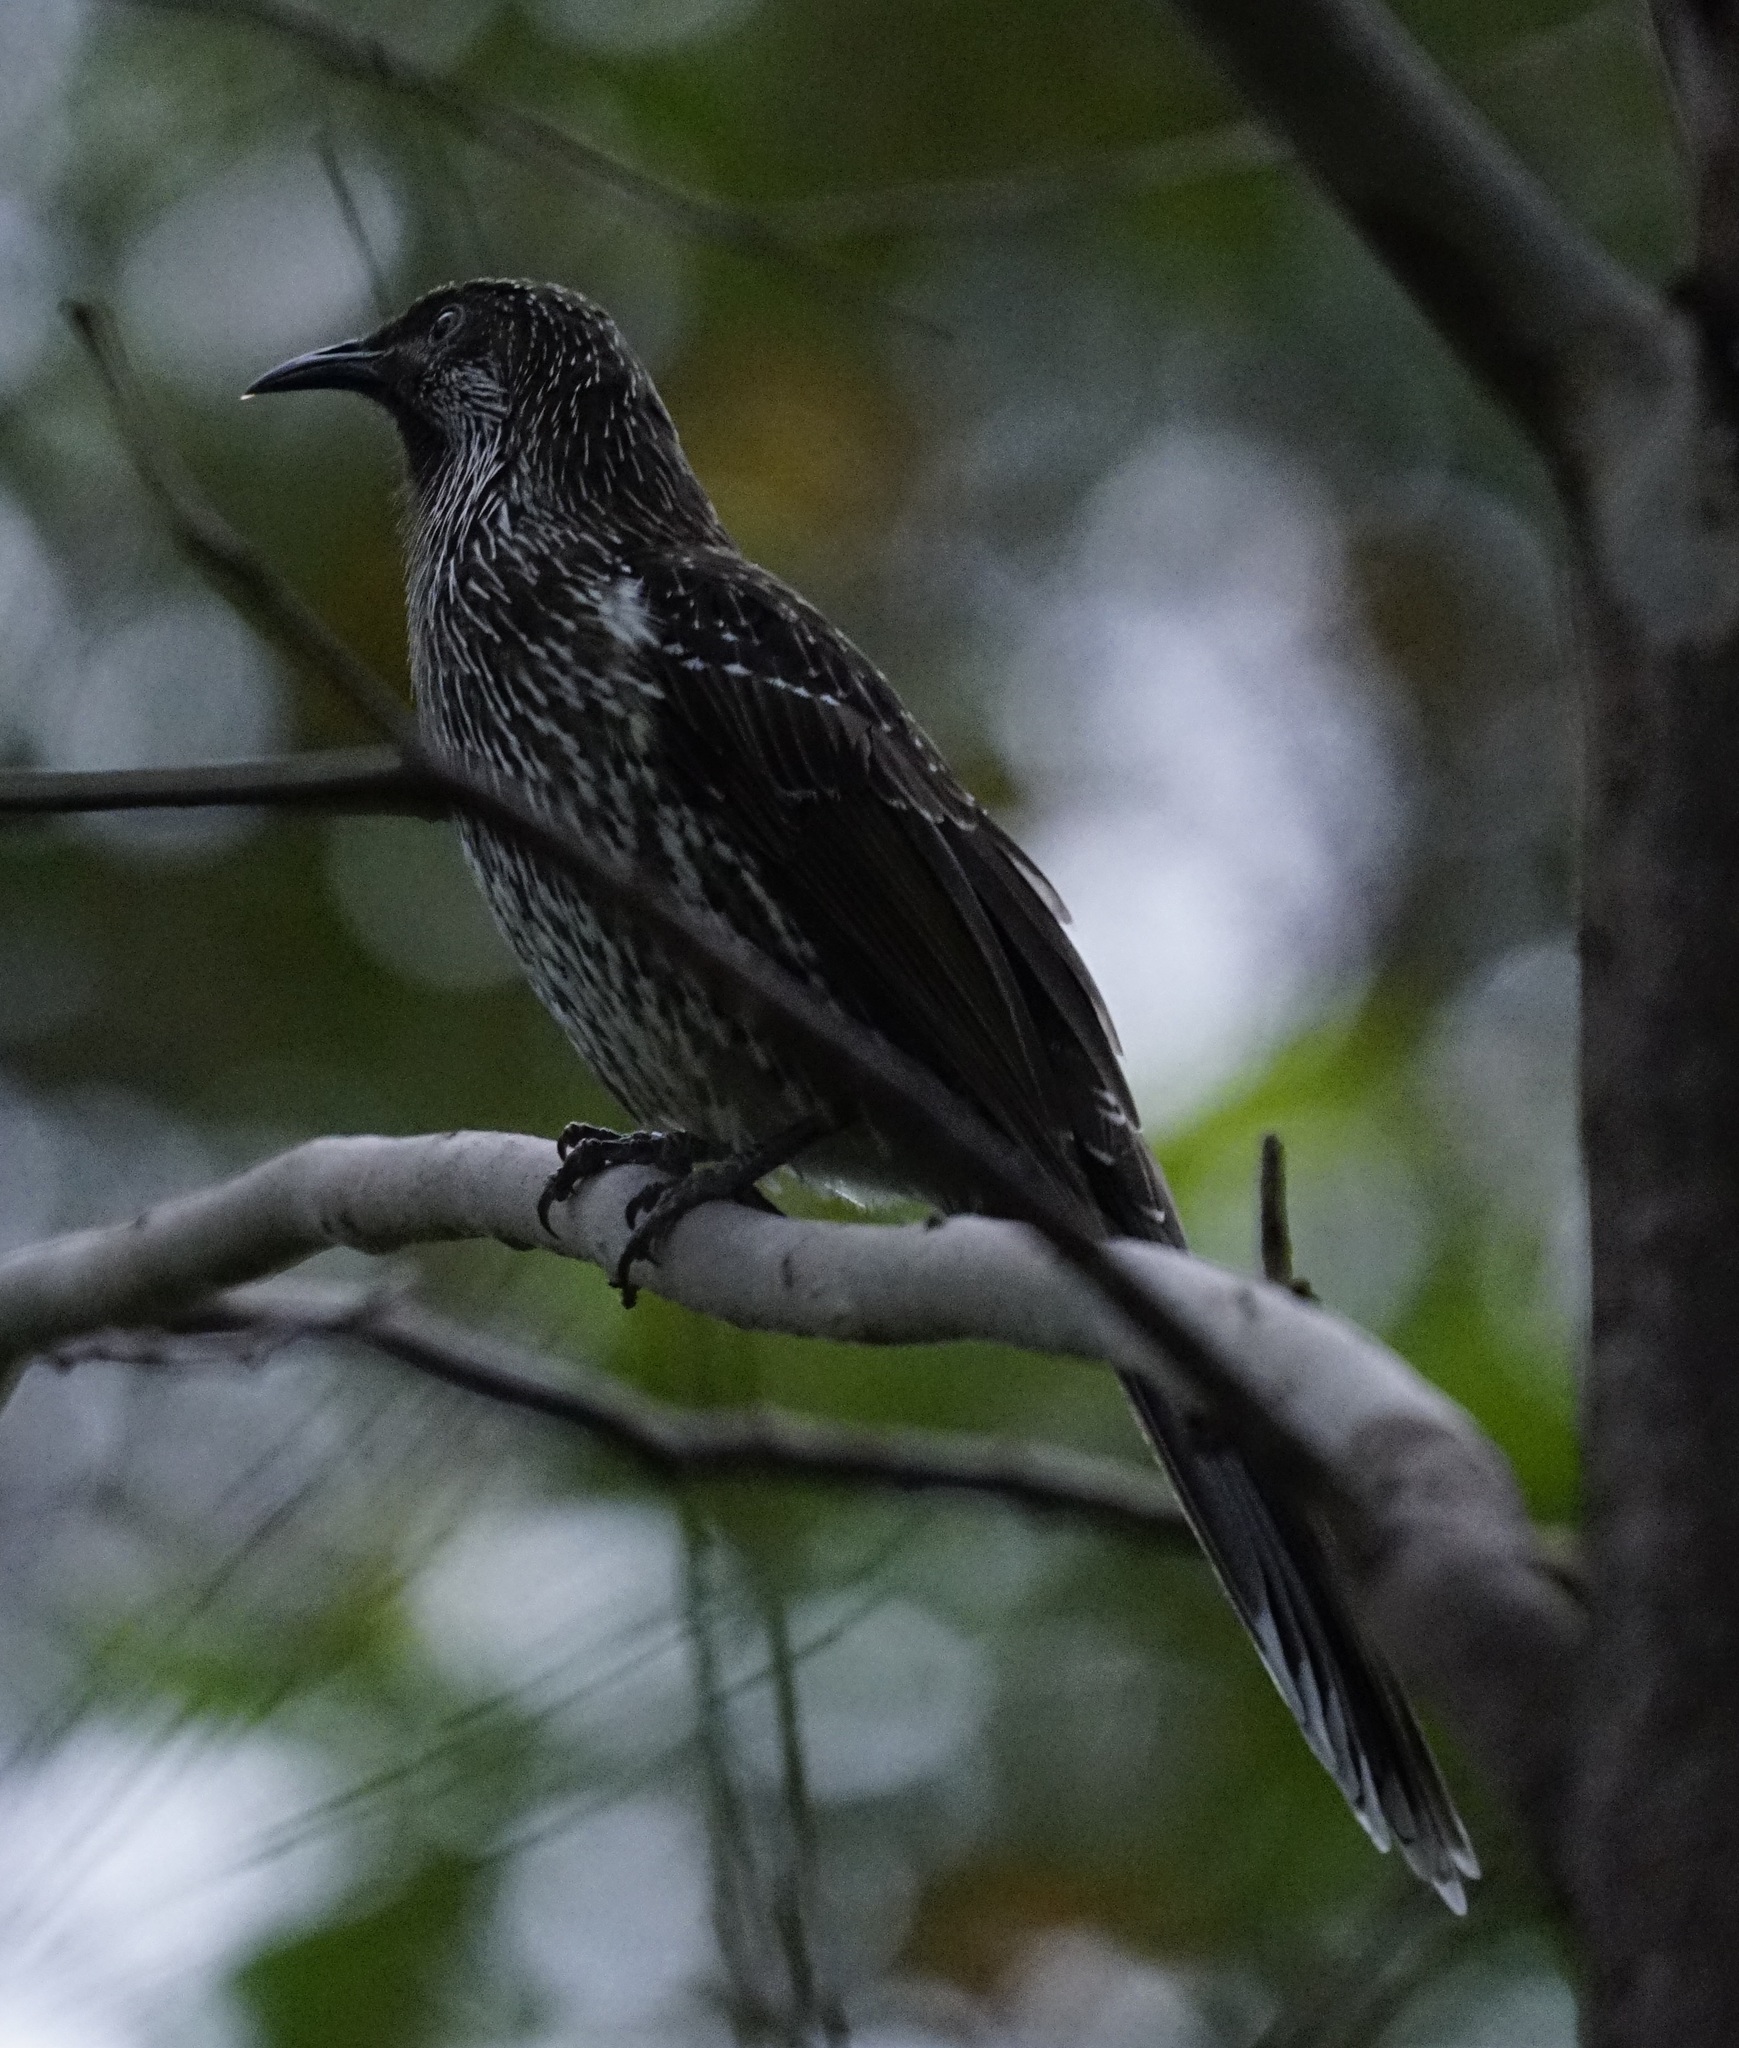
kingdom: Animalia
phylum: Chordata
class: Aves
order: Passeriformes
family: Meliphagidae
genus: Anthochaera
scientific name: Anthochaera chrysoptera
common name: Little wattlebird
